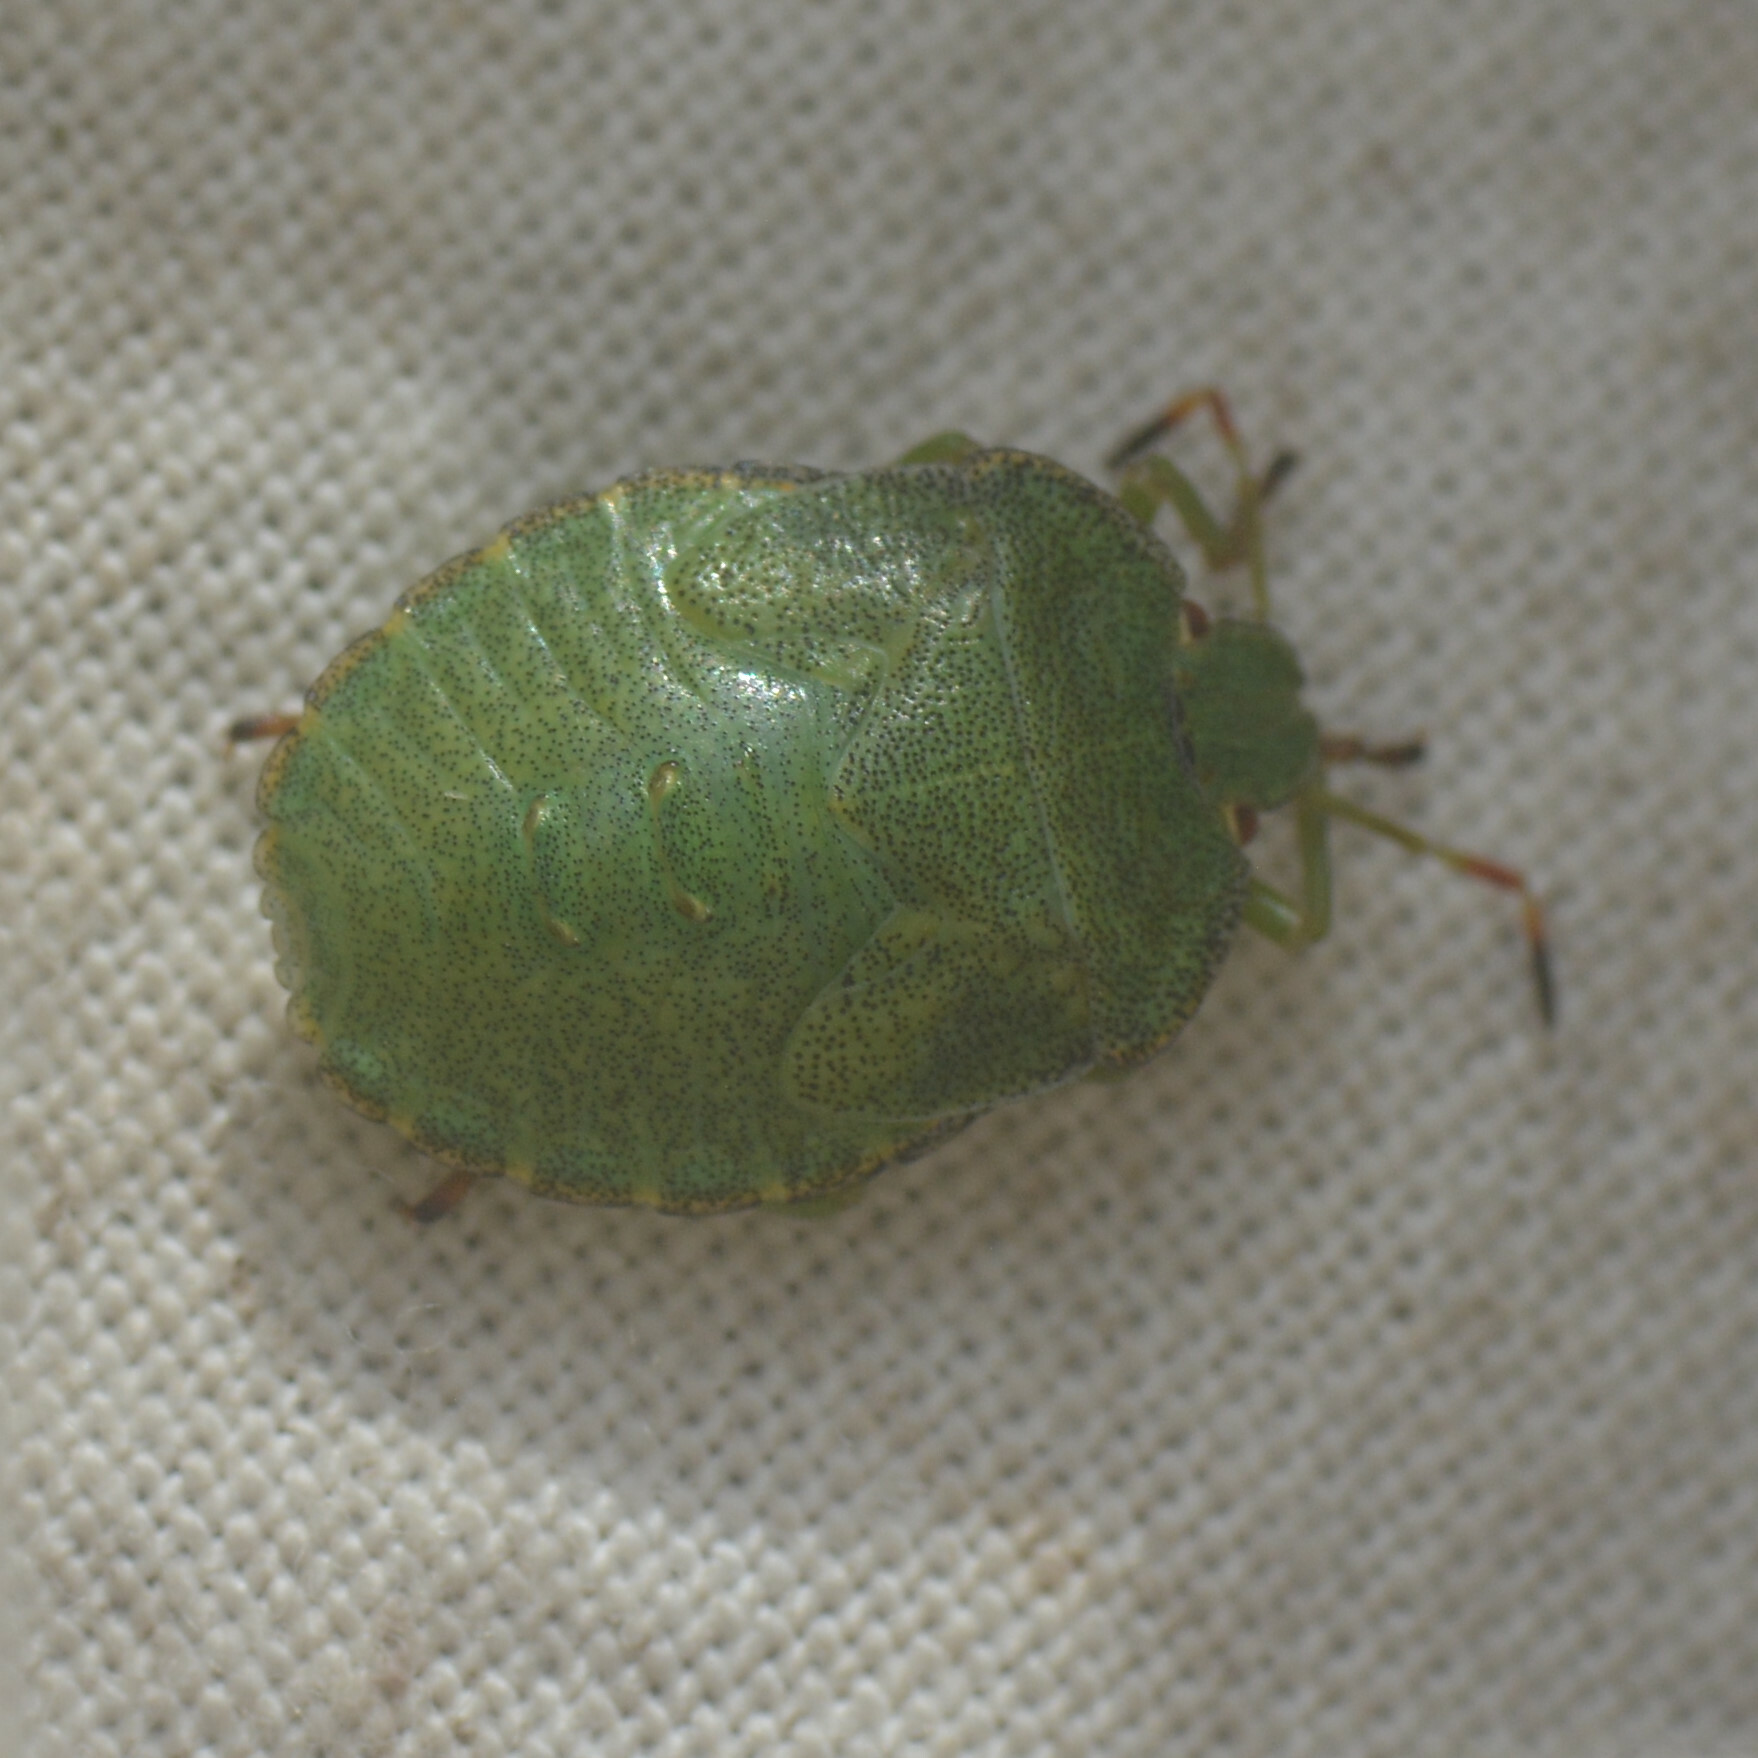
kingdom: Animalia
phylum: Arthropoda
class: Insecta
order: Hemiptera
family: Pentatomidae
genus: Palomena
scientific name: Palomena prasina
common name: Green shieldbug
